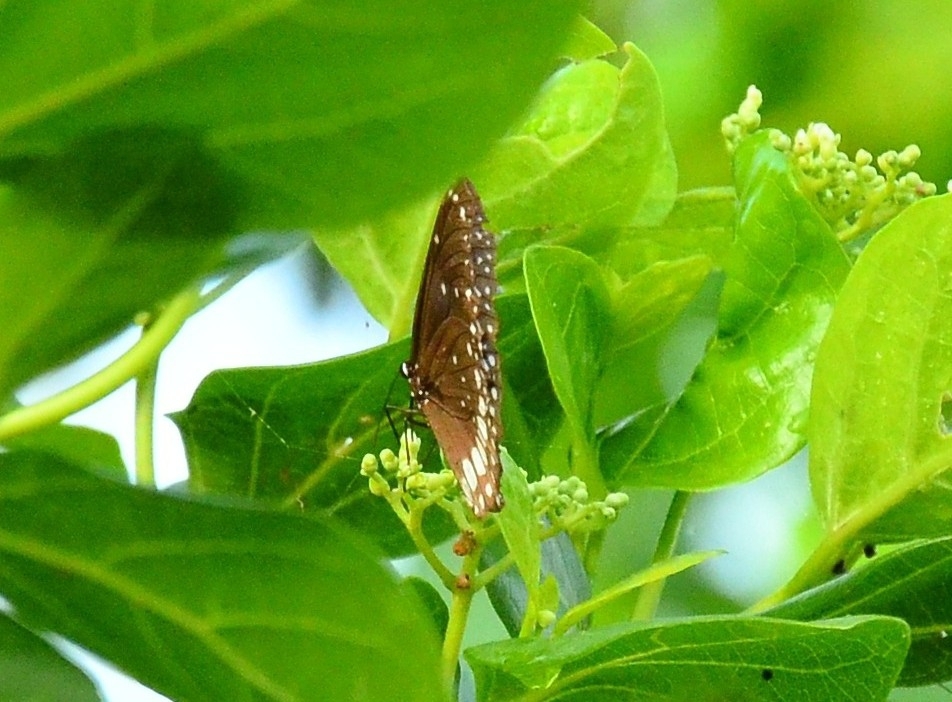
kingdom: Animalia
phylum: Arthropoda
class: Insecta
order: Lepidoptera
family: Nymphalidae
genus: Euploea
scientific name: Euploea core
